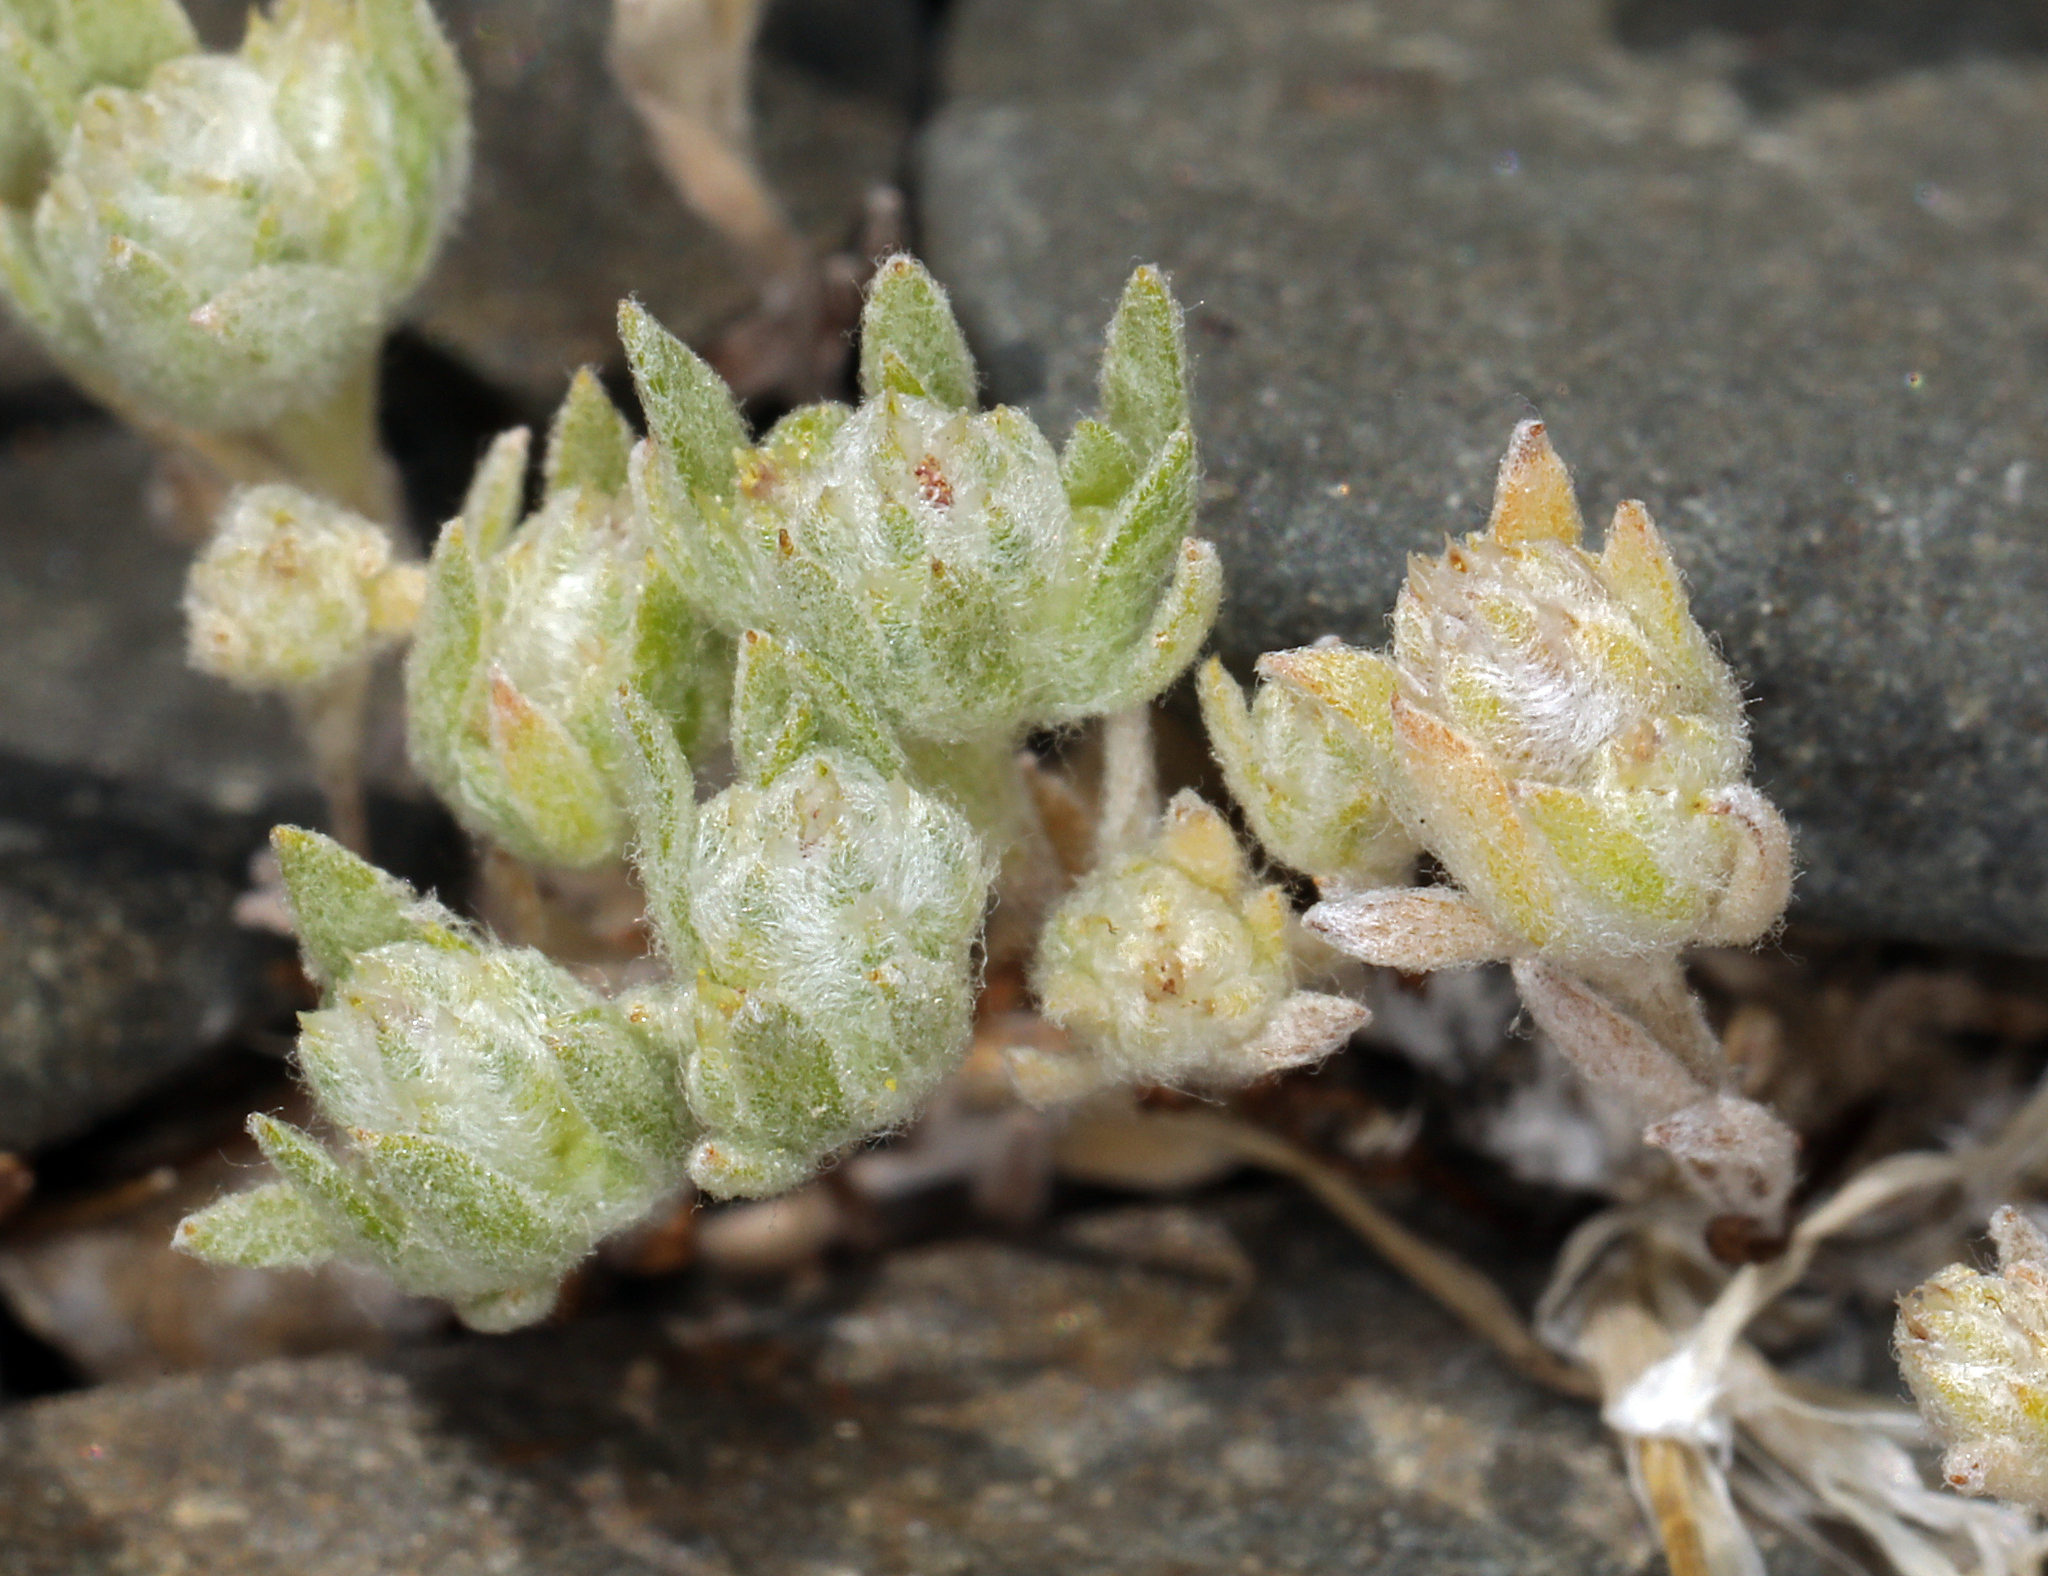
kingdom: Plantae
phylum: Tracheophyta
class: Magnoliopsida
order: Asterales
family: Asteraceae
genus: Stylocline
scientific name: Stylocline psilocarphoides
